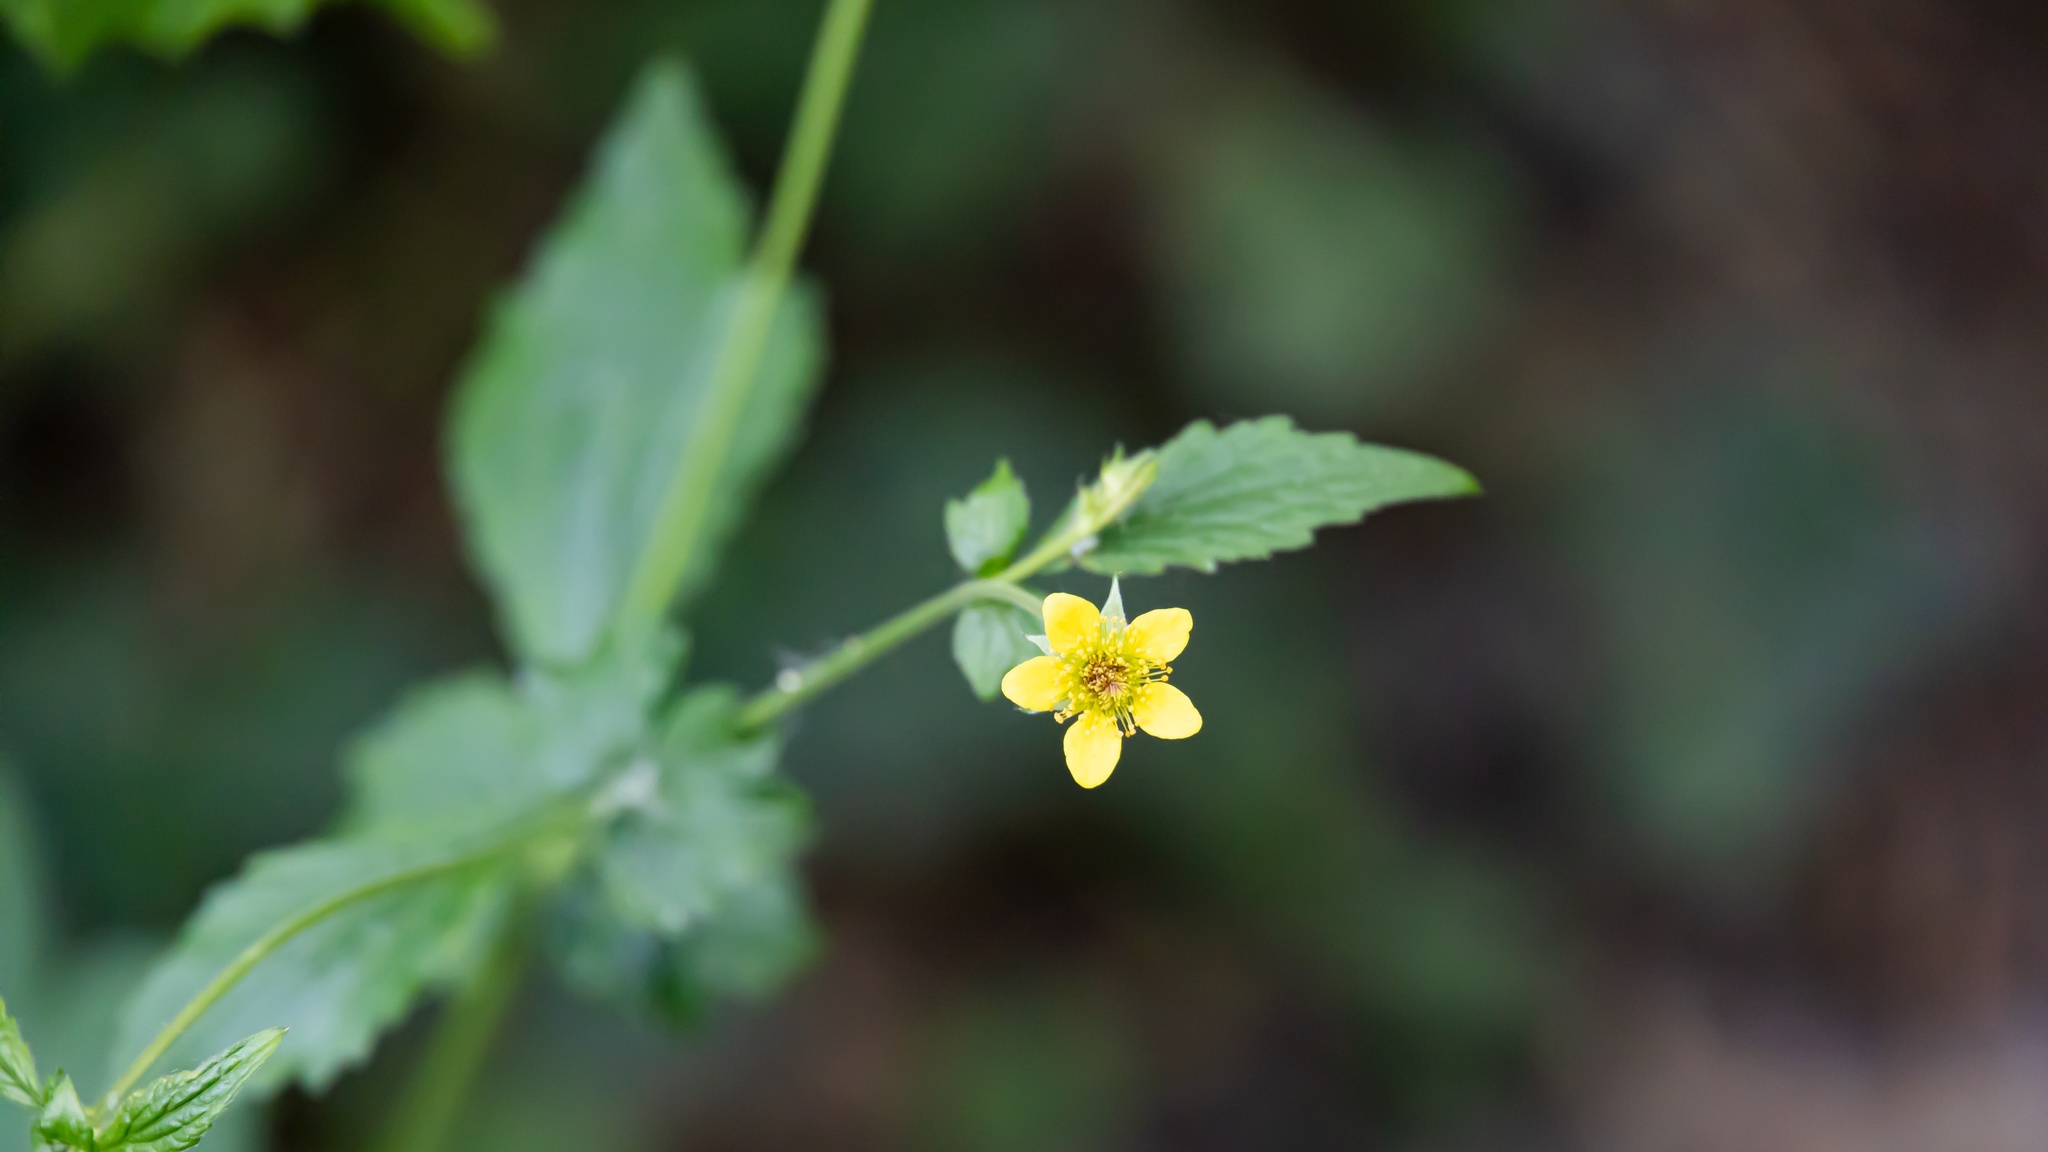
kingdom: Plantae
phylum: Tracheophyta
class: Magnoliopsida
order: Rosales
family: Rosaceae
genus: Geum
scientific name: Geum urbanum
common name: Wood avens
